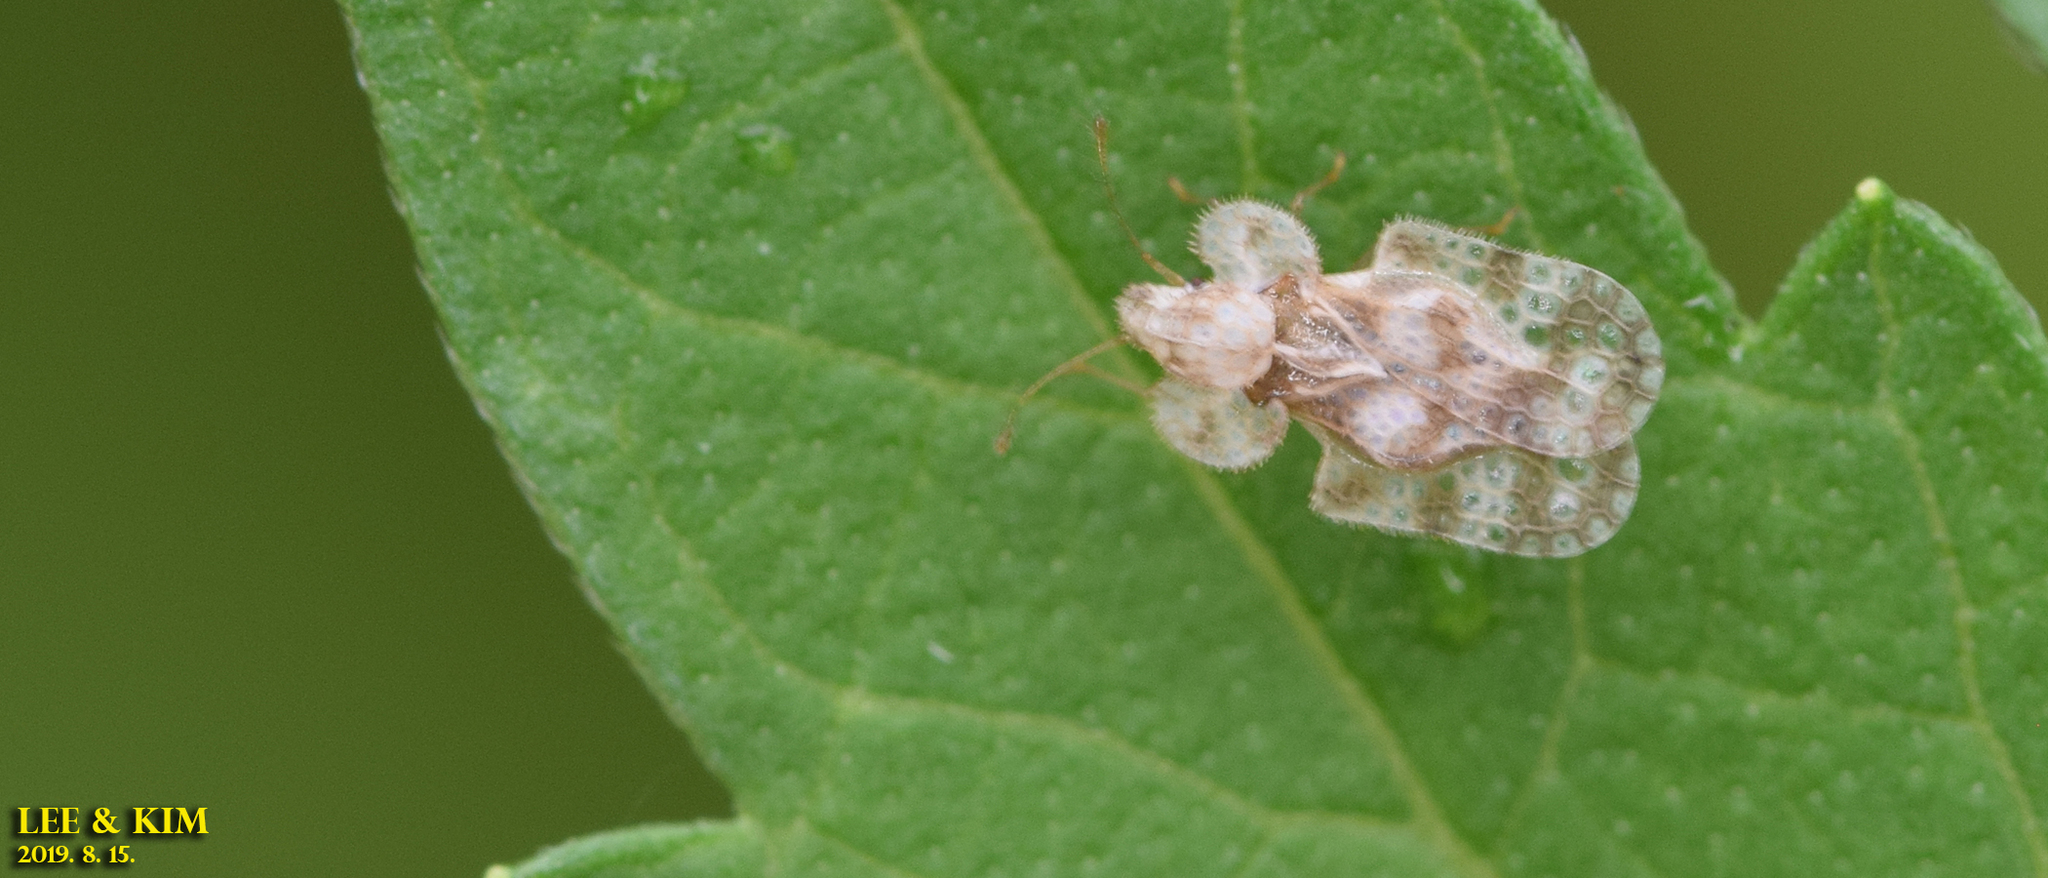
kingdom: Animalia
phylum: Arthropoda
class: Insecta
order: Hemiptera
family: Tingidae
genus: Corythucha
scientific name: Corythucha marmorata
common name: Chrysanthemum lace bug
